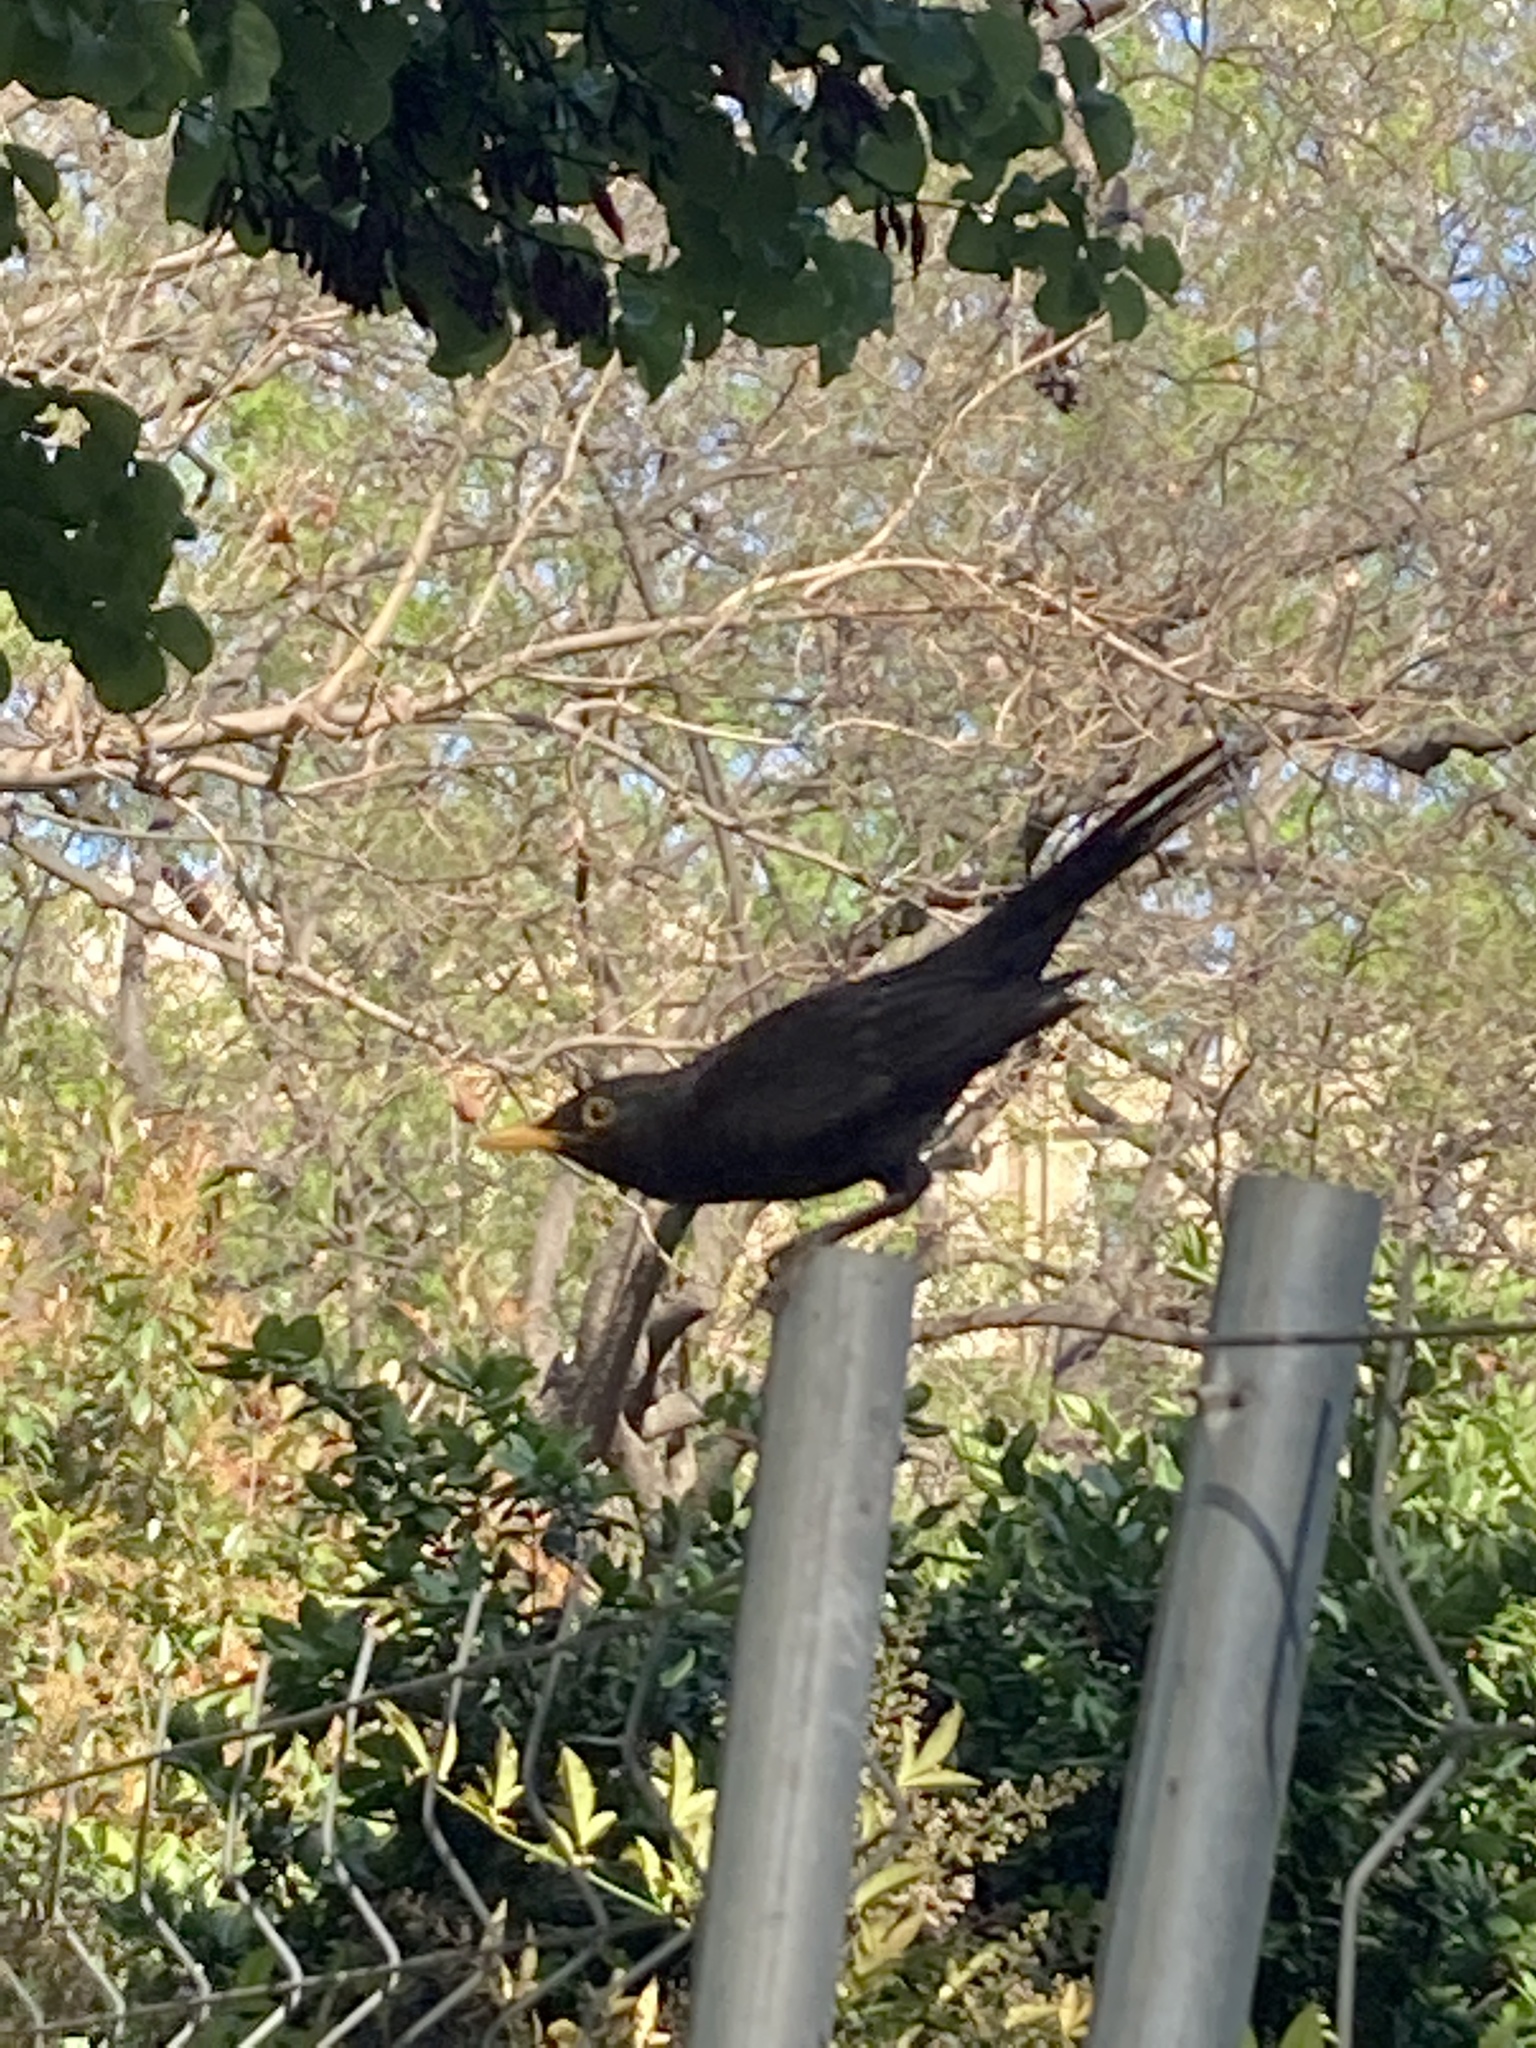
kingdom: Animalia
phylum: Chordata
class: Aves
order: Passeriformes
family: Turdidae
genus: Turdus
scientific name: Turdus merula
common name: Common blackbird
